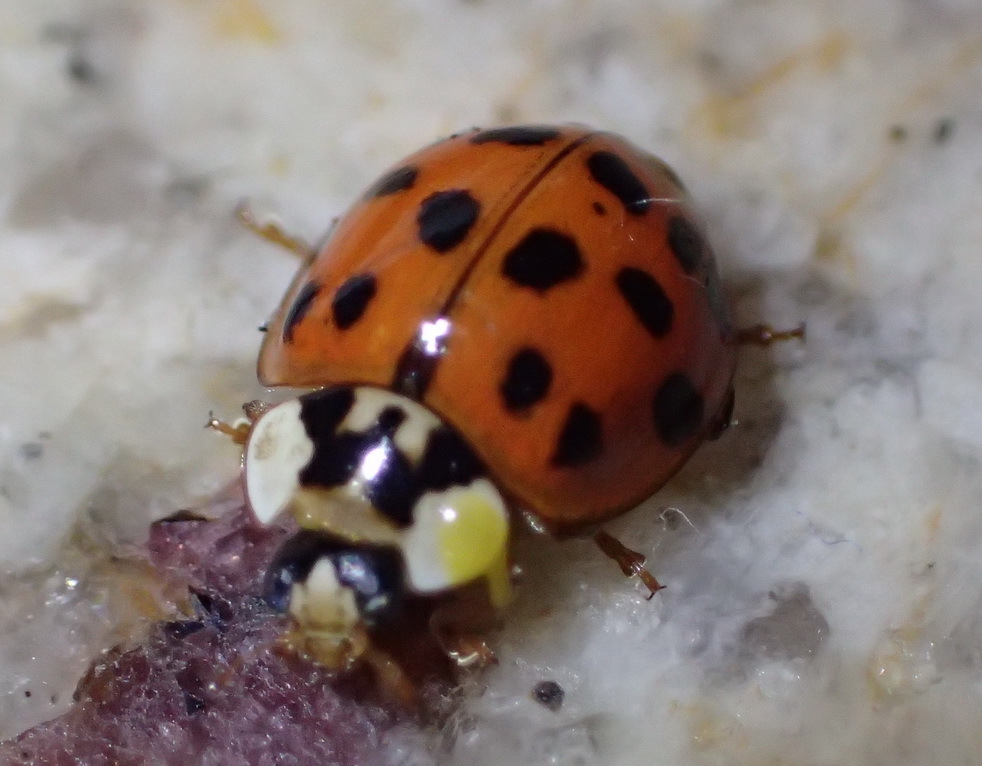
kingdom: Animalia
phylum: Arthropoda
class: Insecta
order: Coleoptera
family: Coccinellidae
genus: Harmonia
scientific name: Harmonia axyridis
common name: Harlequin ladybird
